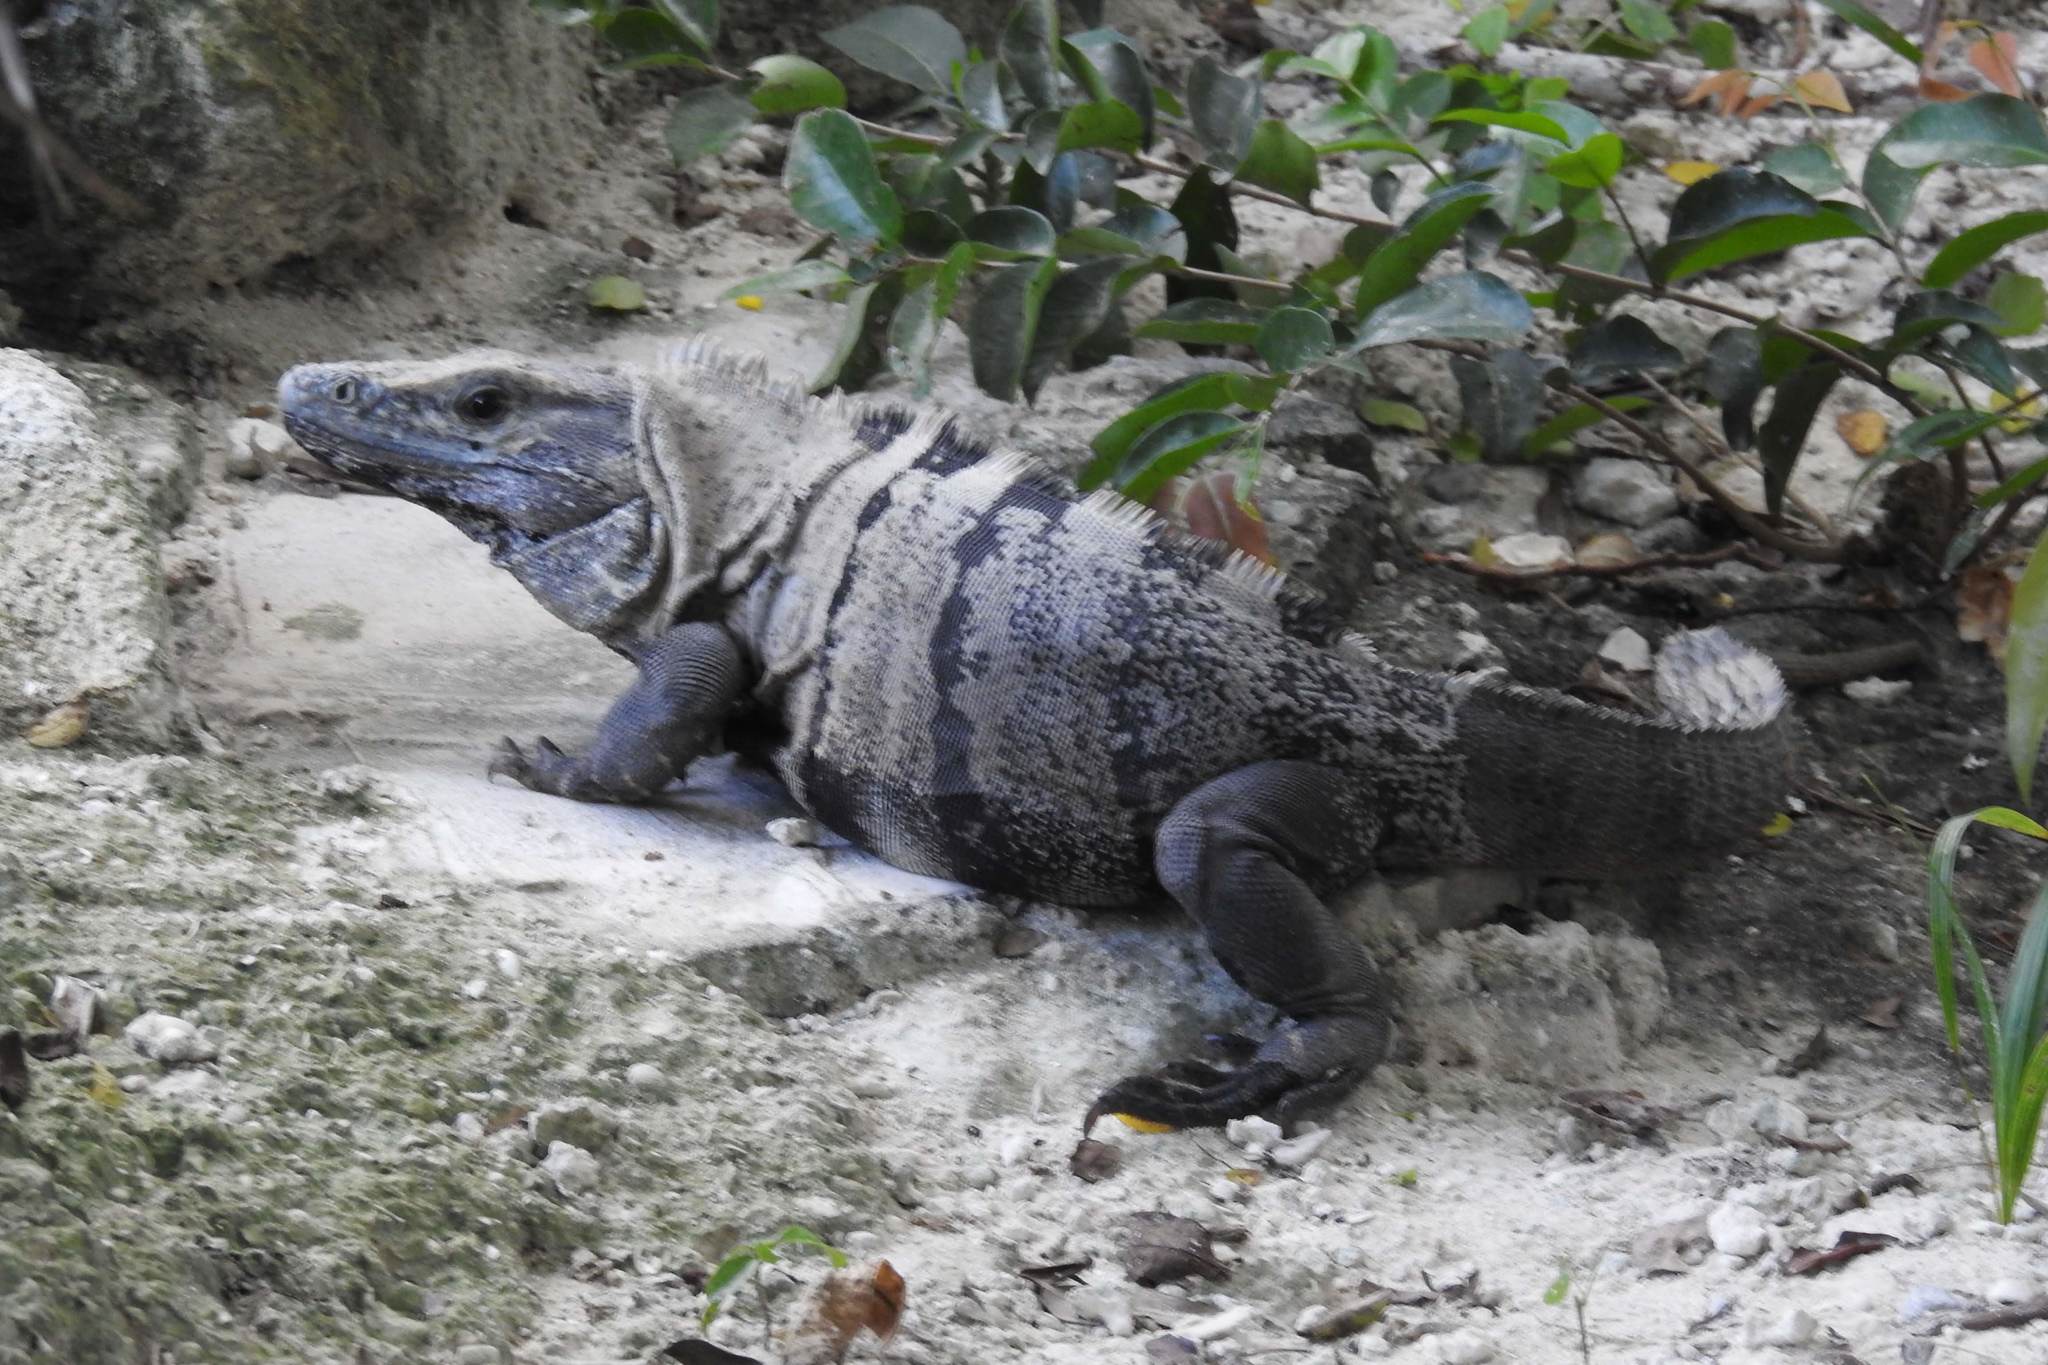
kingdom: Animalia
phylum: Chordata
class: Squamata
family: Iguanidae
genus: Ctenosaura
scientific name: Ctenosaura similis
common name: Black spiny-tailed iguana
